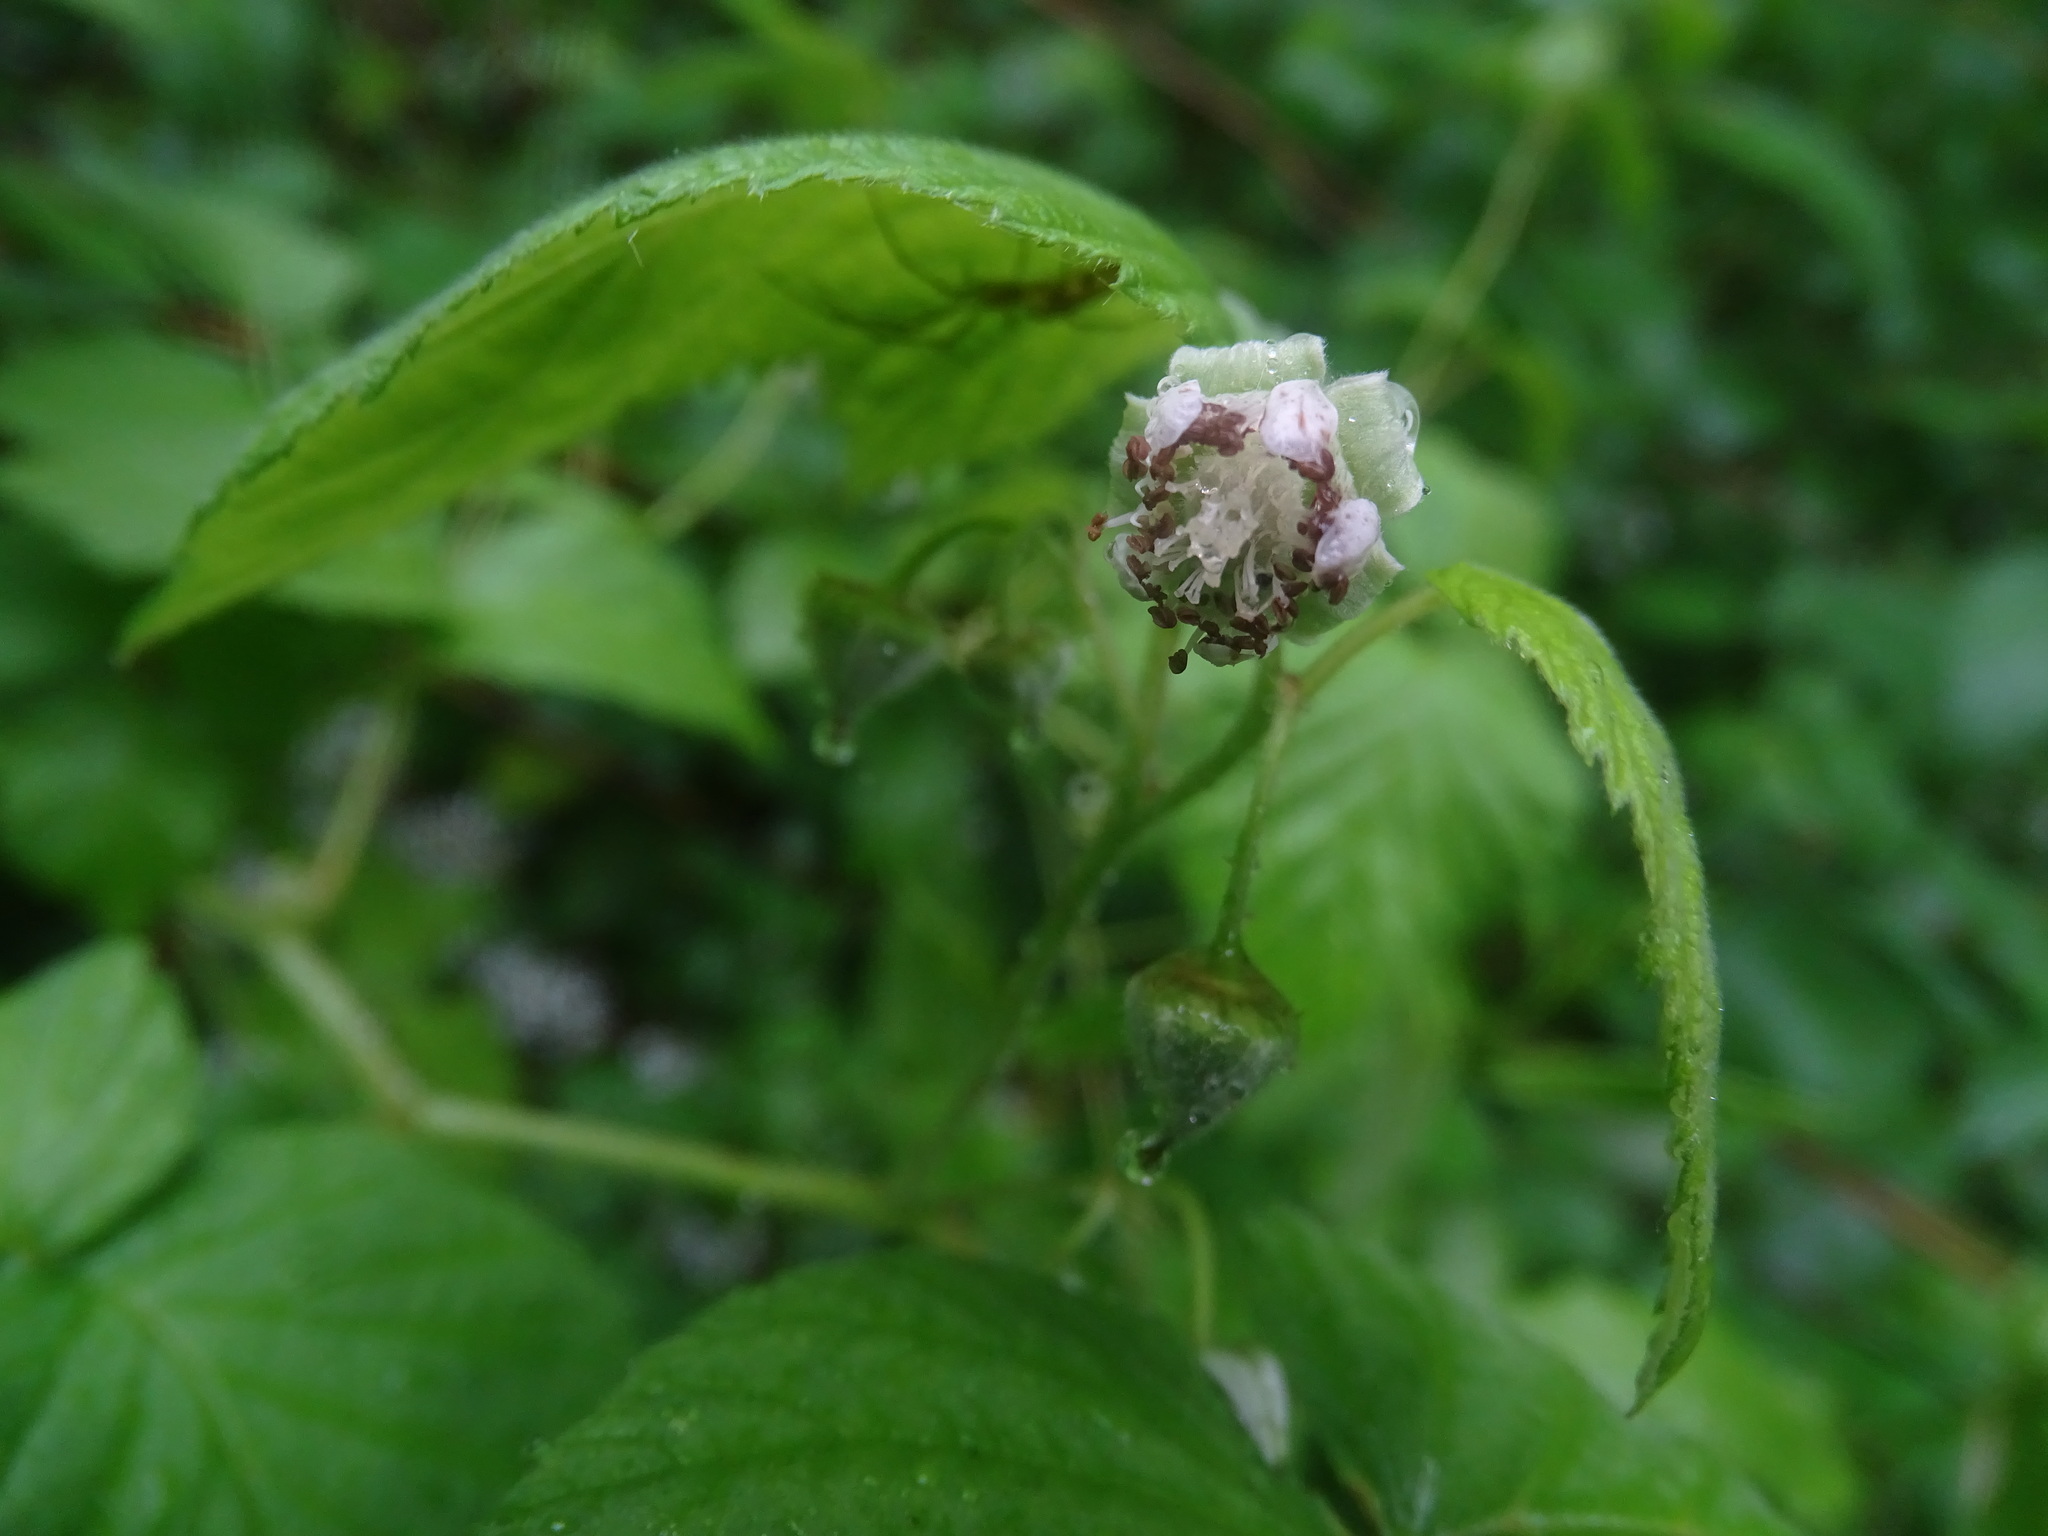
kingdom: Plantae
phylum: Tracheophyta
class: Magnoliopsida
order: Rosales
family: Rosaceae
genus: Rubus
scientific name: Rubus idaeus
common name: Raspberry
